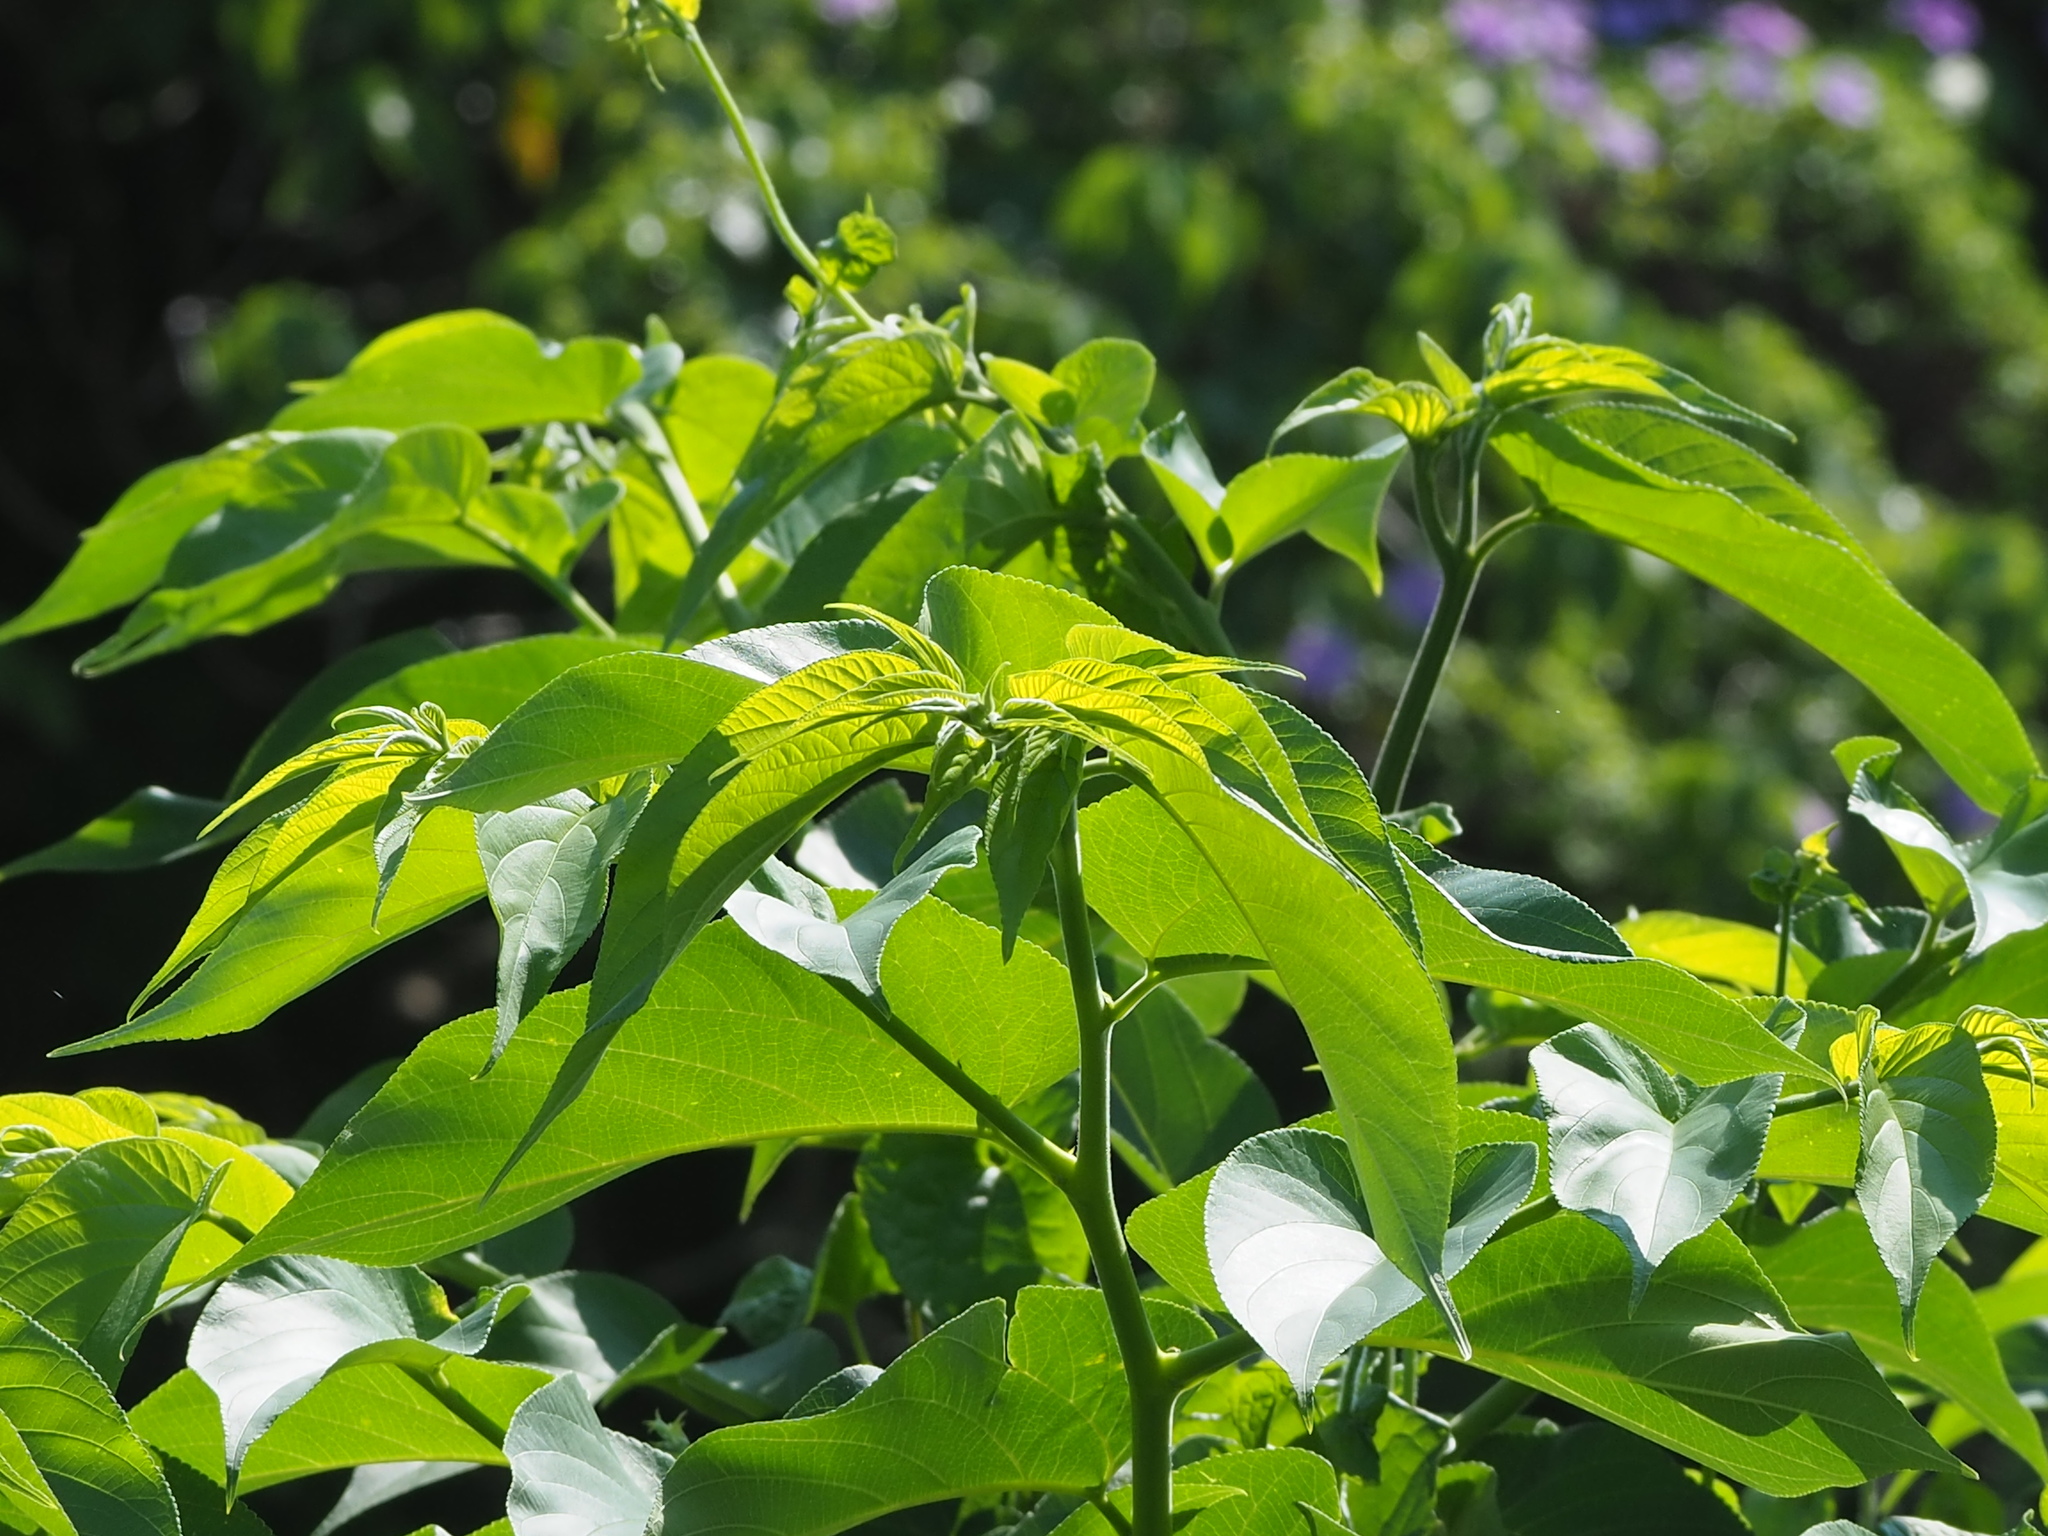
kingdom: Plantae
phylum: Tracheophyta
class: Magnoliopsida
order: Rosales
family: Cannabaceae
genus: Trema
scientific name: Trema orientale
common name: Indian charcoal tree
